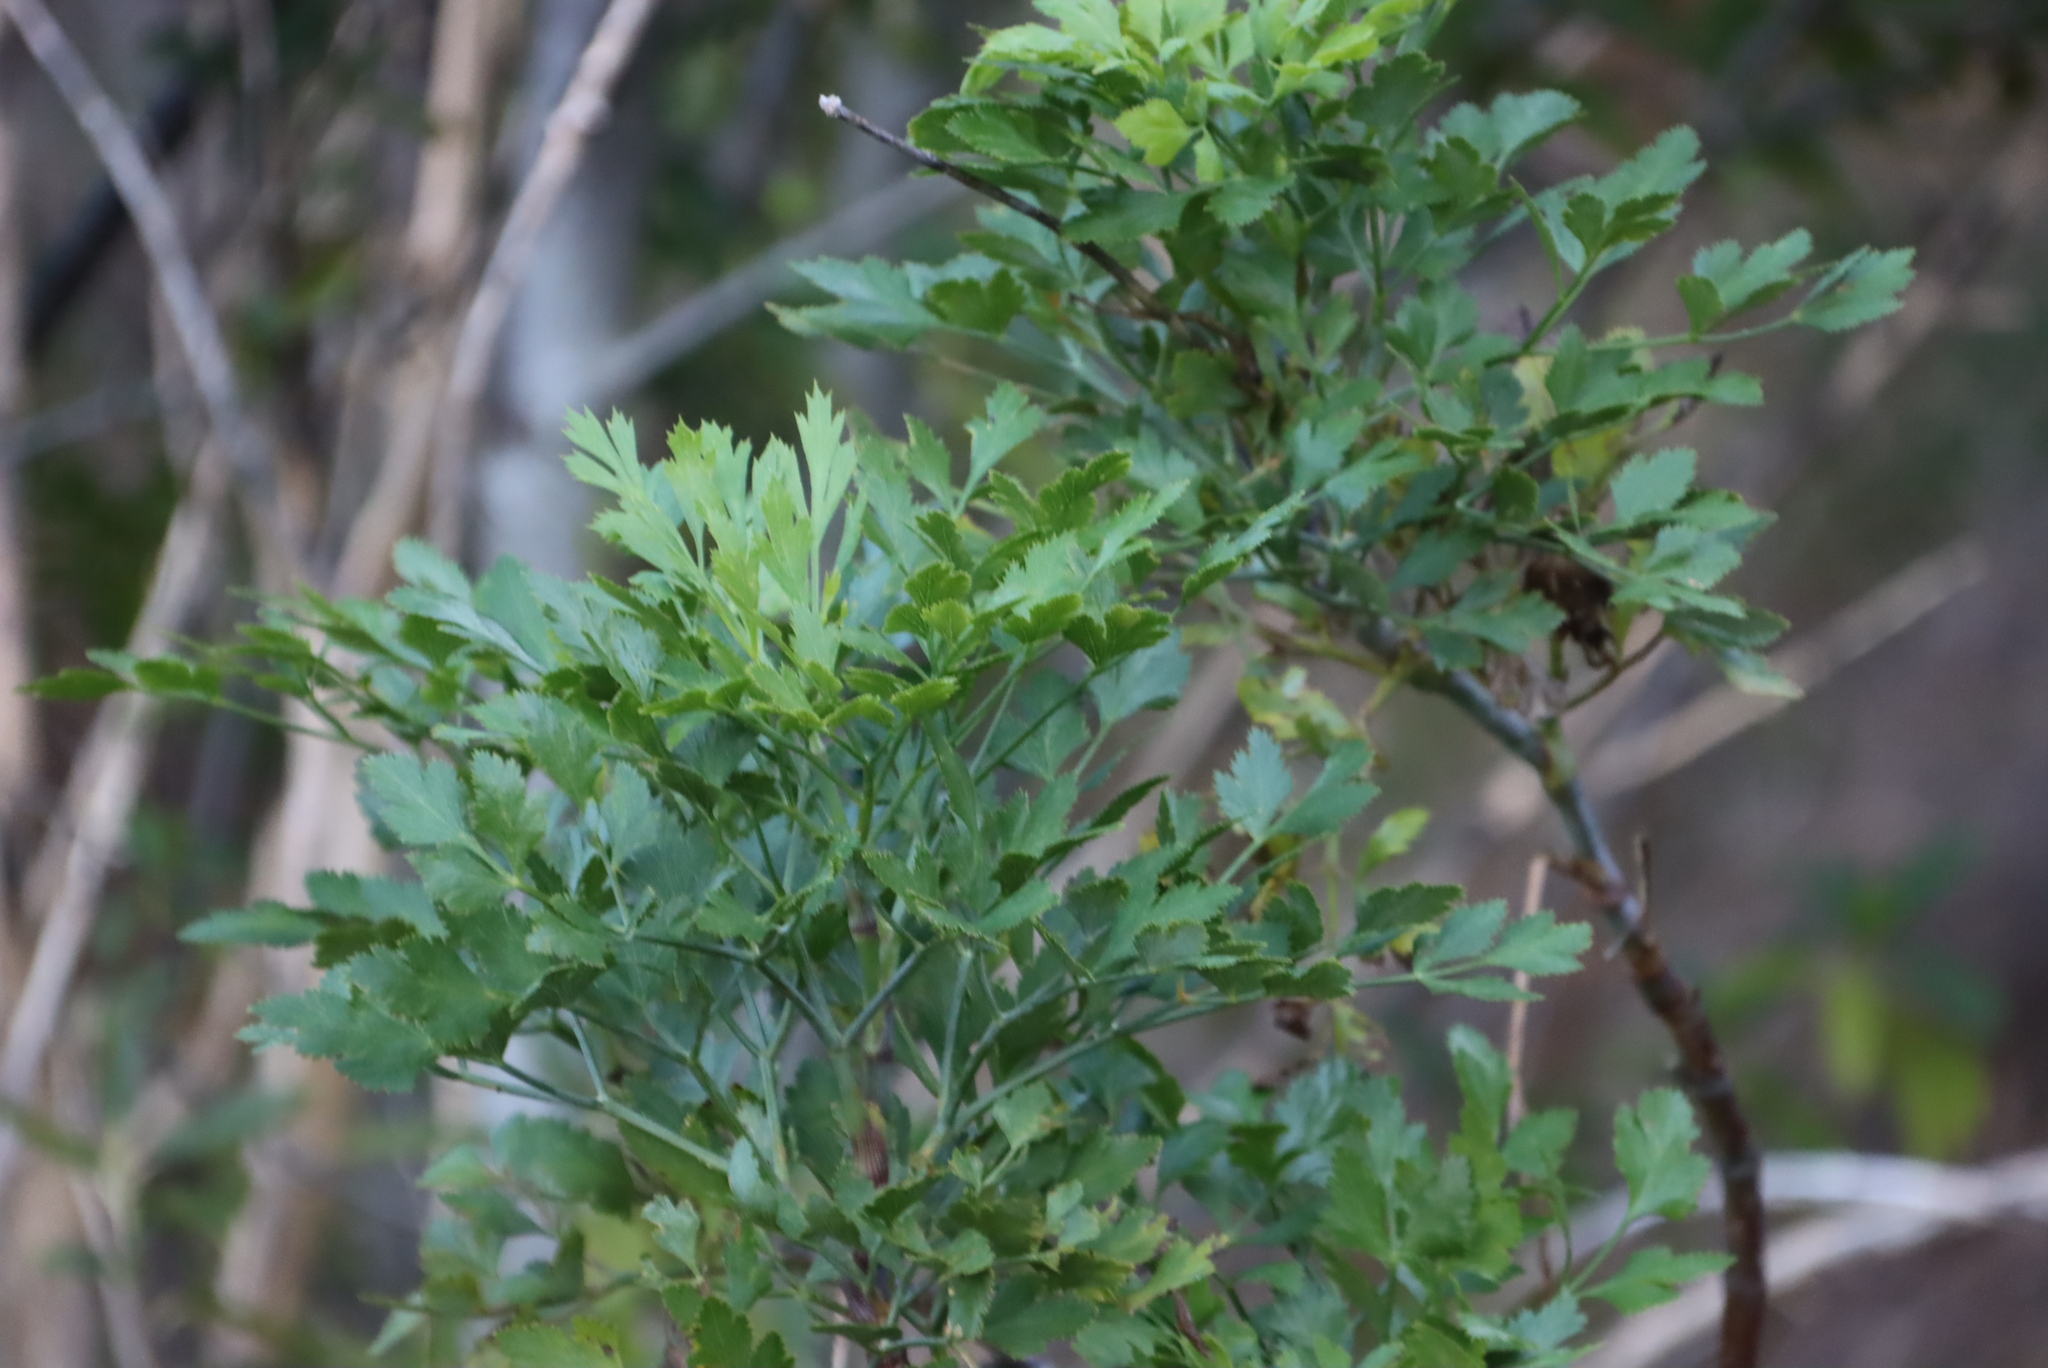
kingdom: Plantae
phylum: Tracheophyta
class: Magnoliopsida
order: Apiales
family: Apiaceae
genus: Notobubon
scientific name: Notobubon galbanum
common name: Blisterbush
